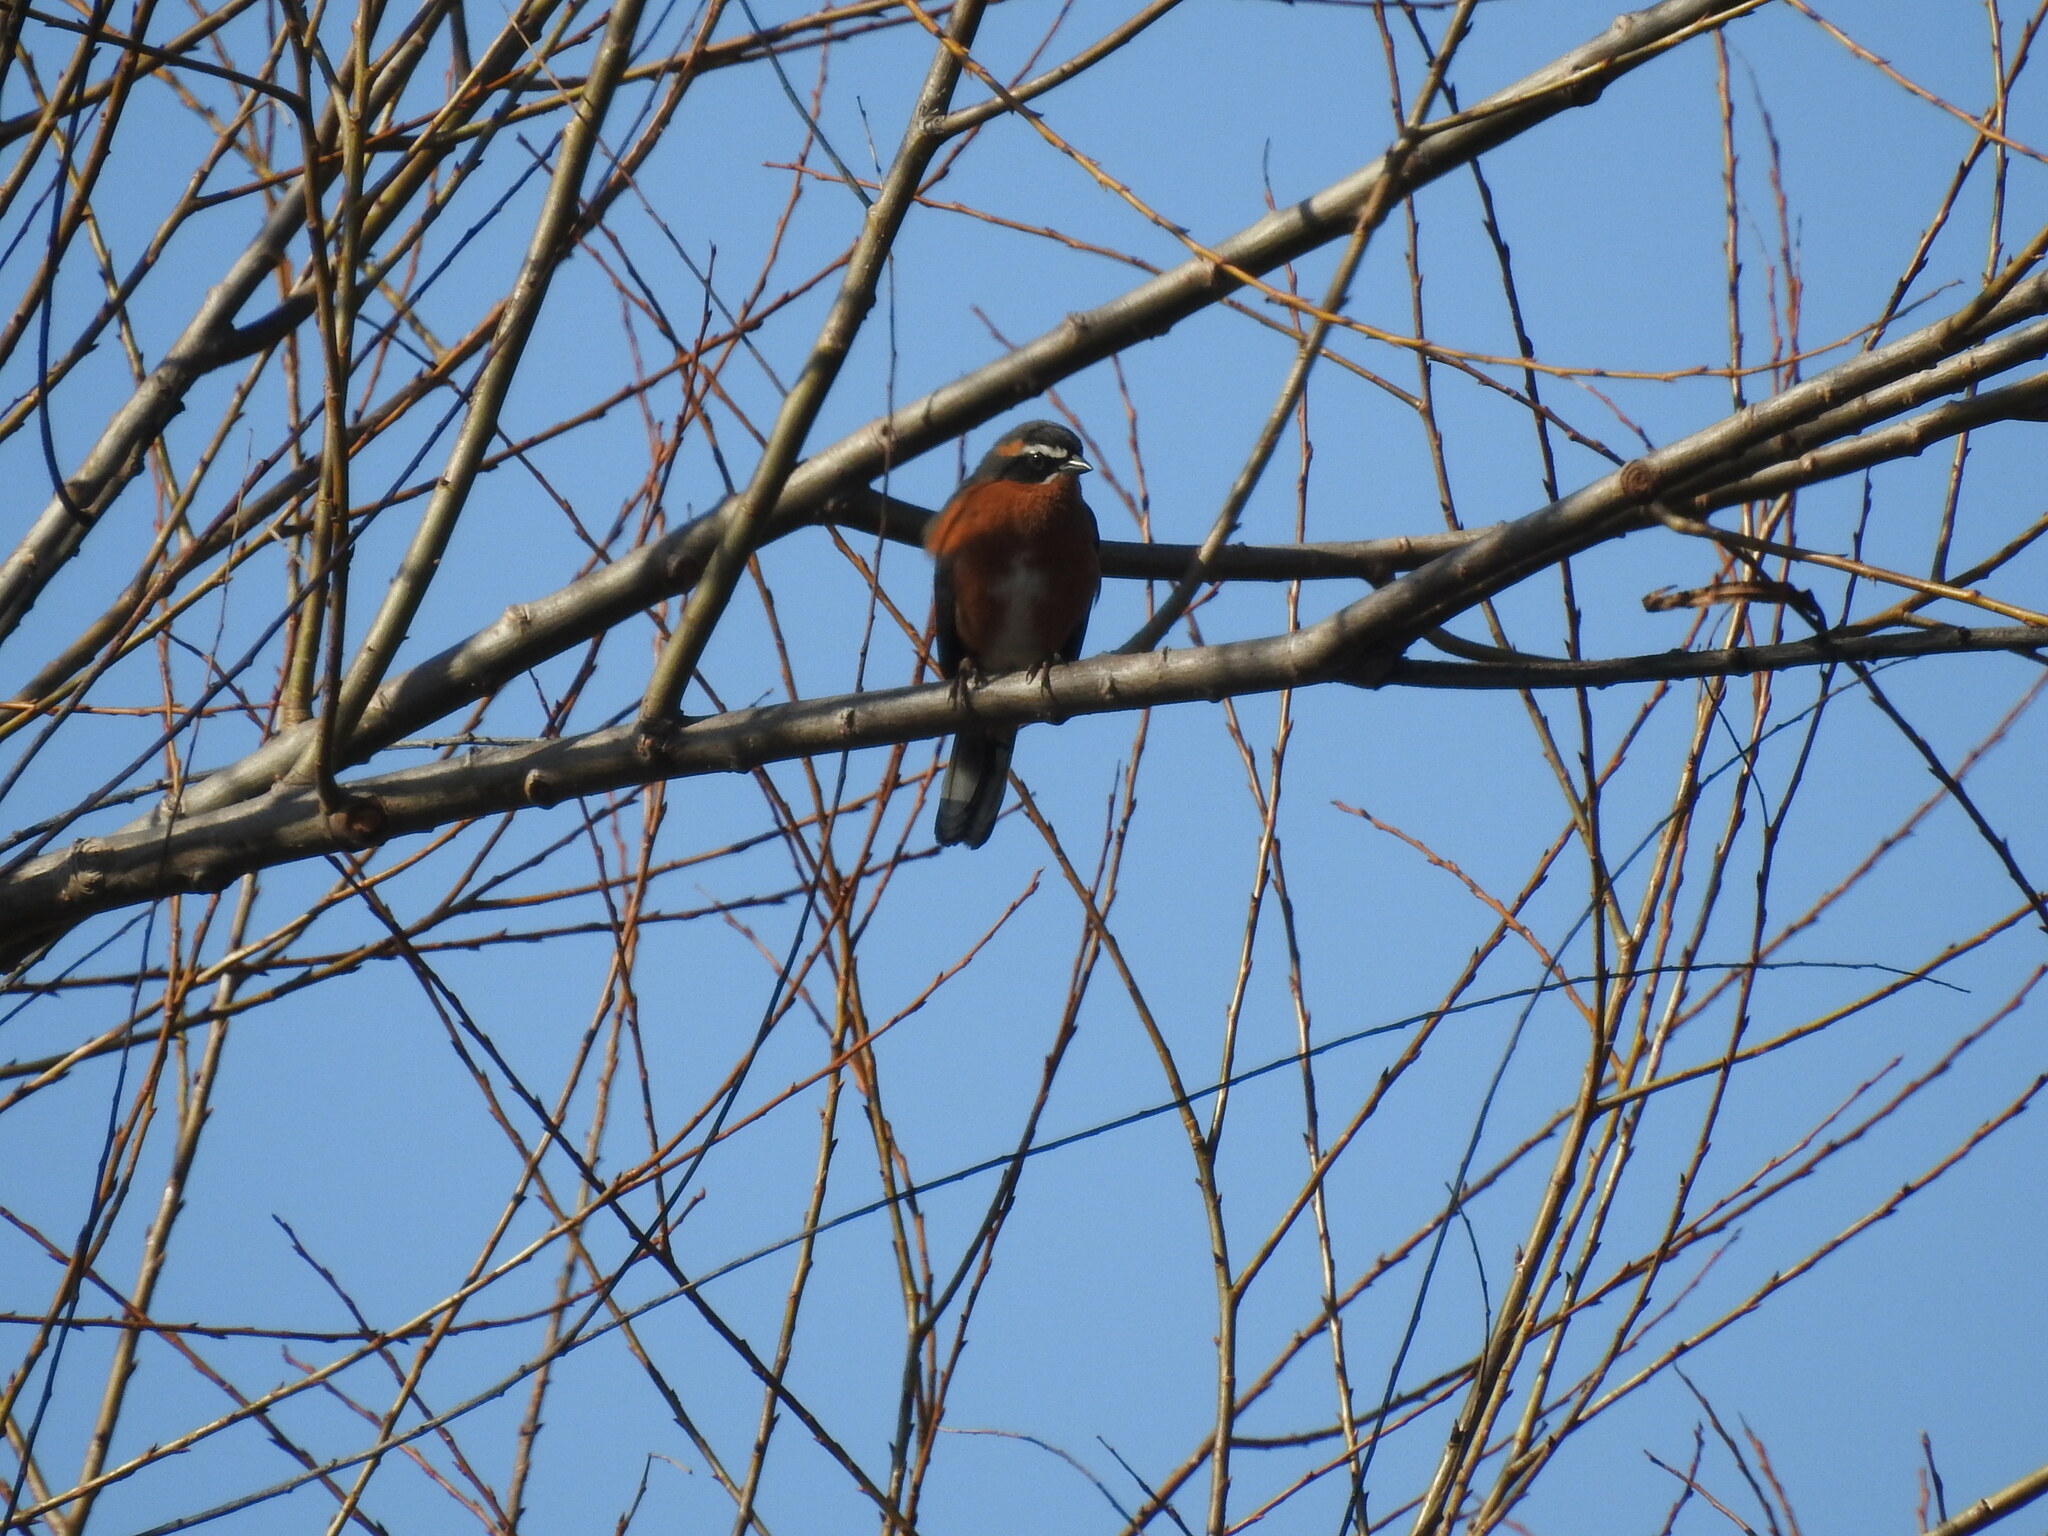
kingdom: Animalia
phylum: Chordata
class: Aves
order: Passeriformes
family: Thraupidae
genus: Poospiza
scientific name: Poospiza nigrorufa
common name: Black-and-rufous warbling finch
